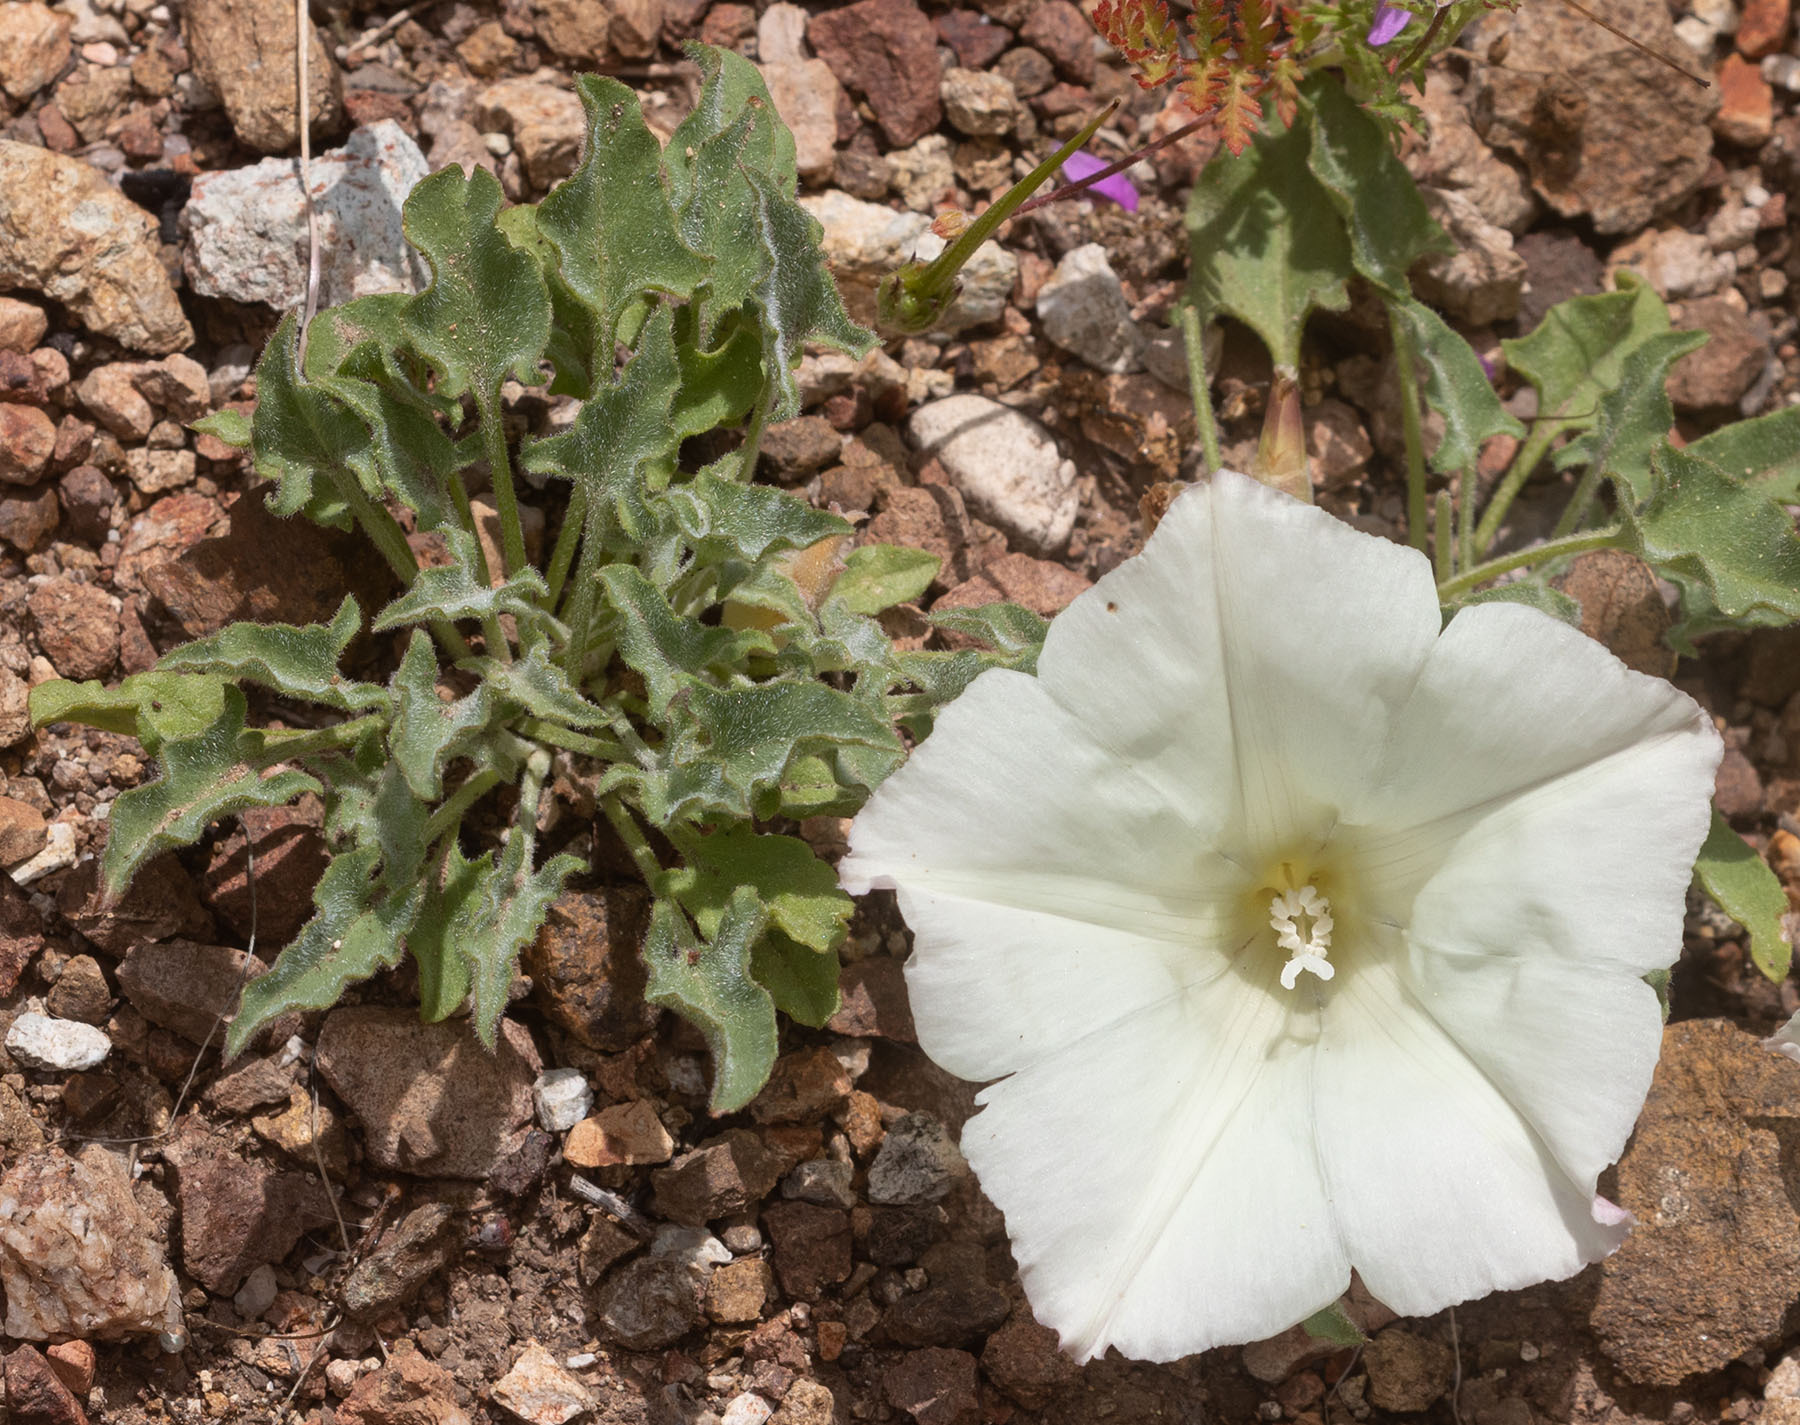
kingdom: Plantae
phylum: Tracheophyta
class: Magnoliopsida
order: Solanales
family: Convolvulaceae
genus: Calystegia
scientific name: Calystegia collina
